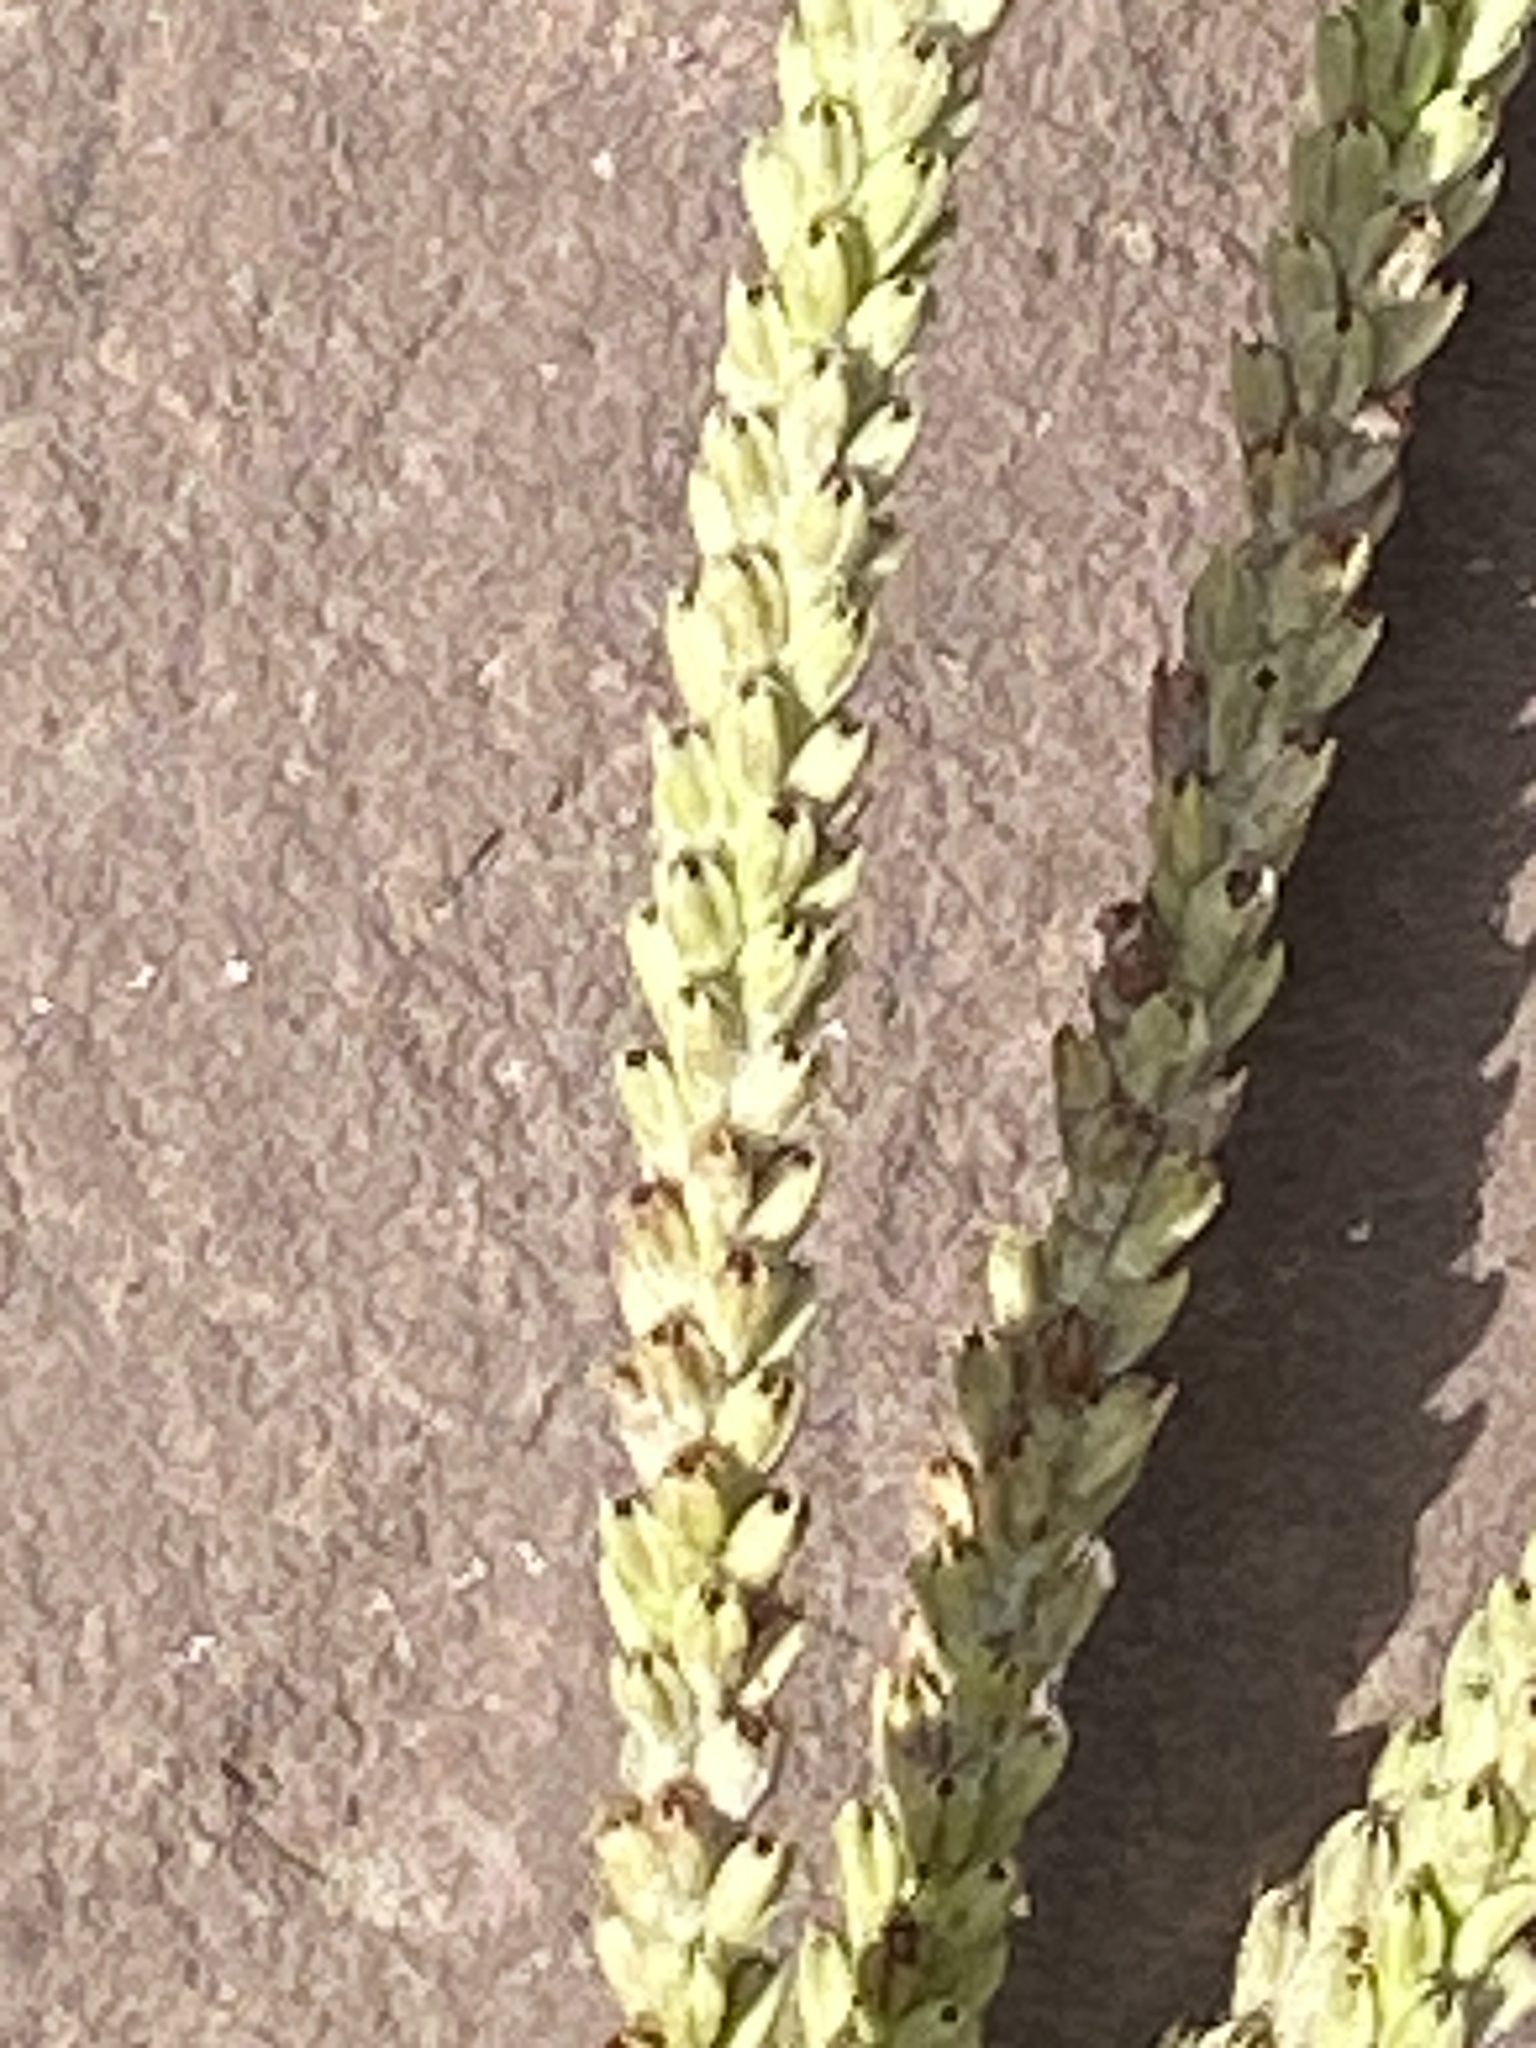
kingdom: Plantae
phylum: Tracheophyta
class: Magnoliopsida
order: Lamiales
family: Verbenaceae
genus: Verbena
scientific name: Verbena hastata
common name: American blue vervain
